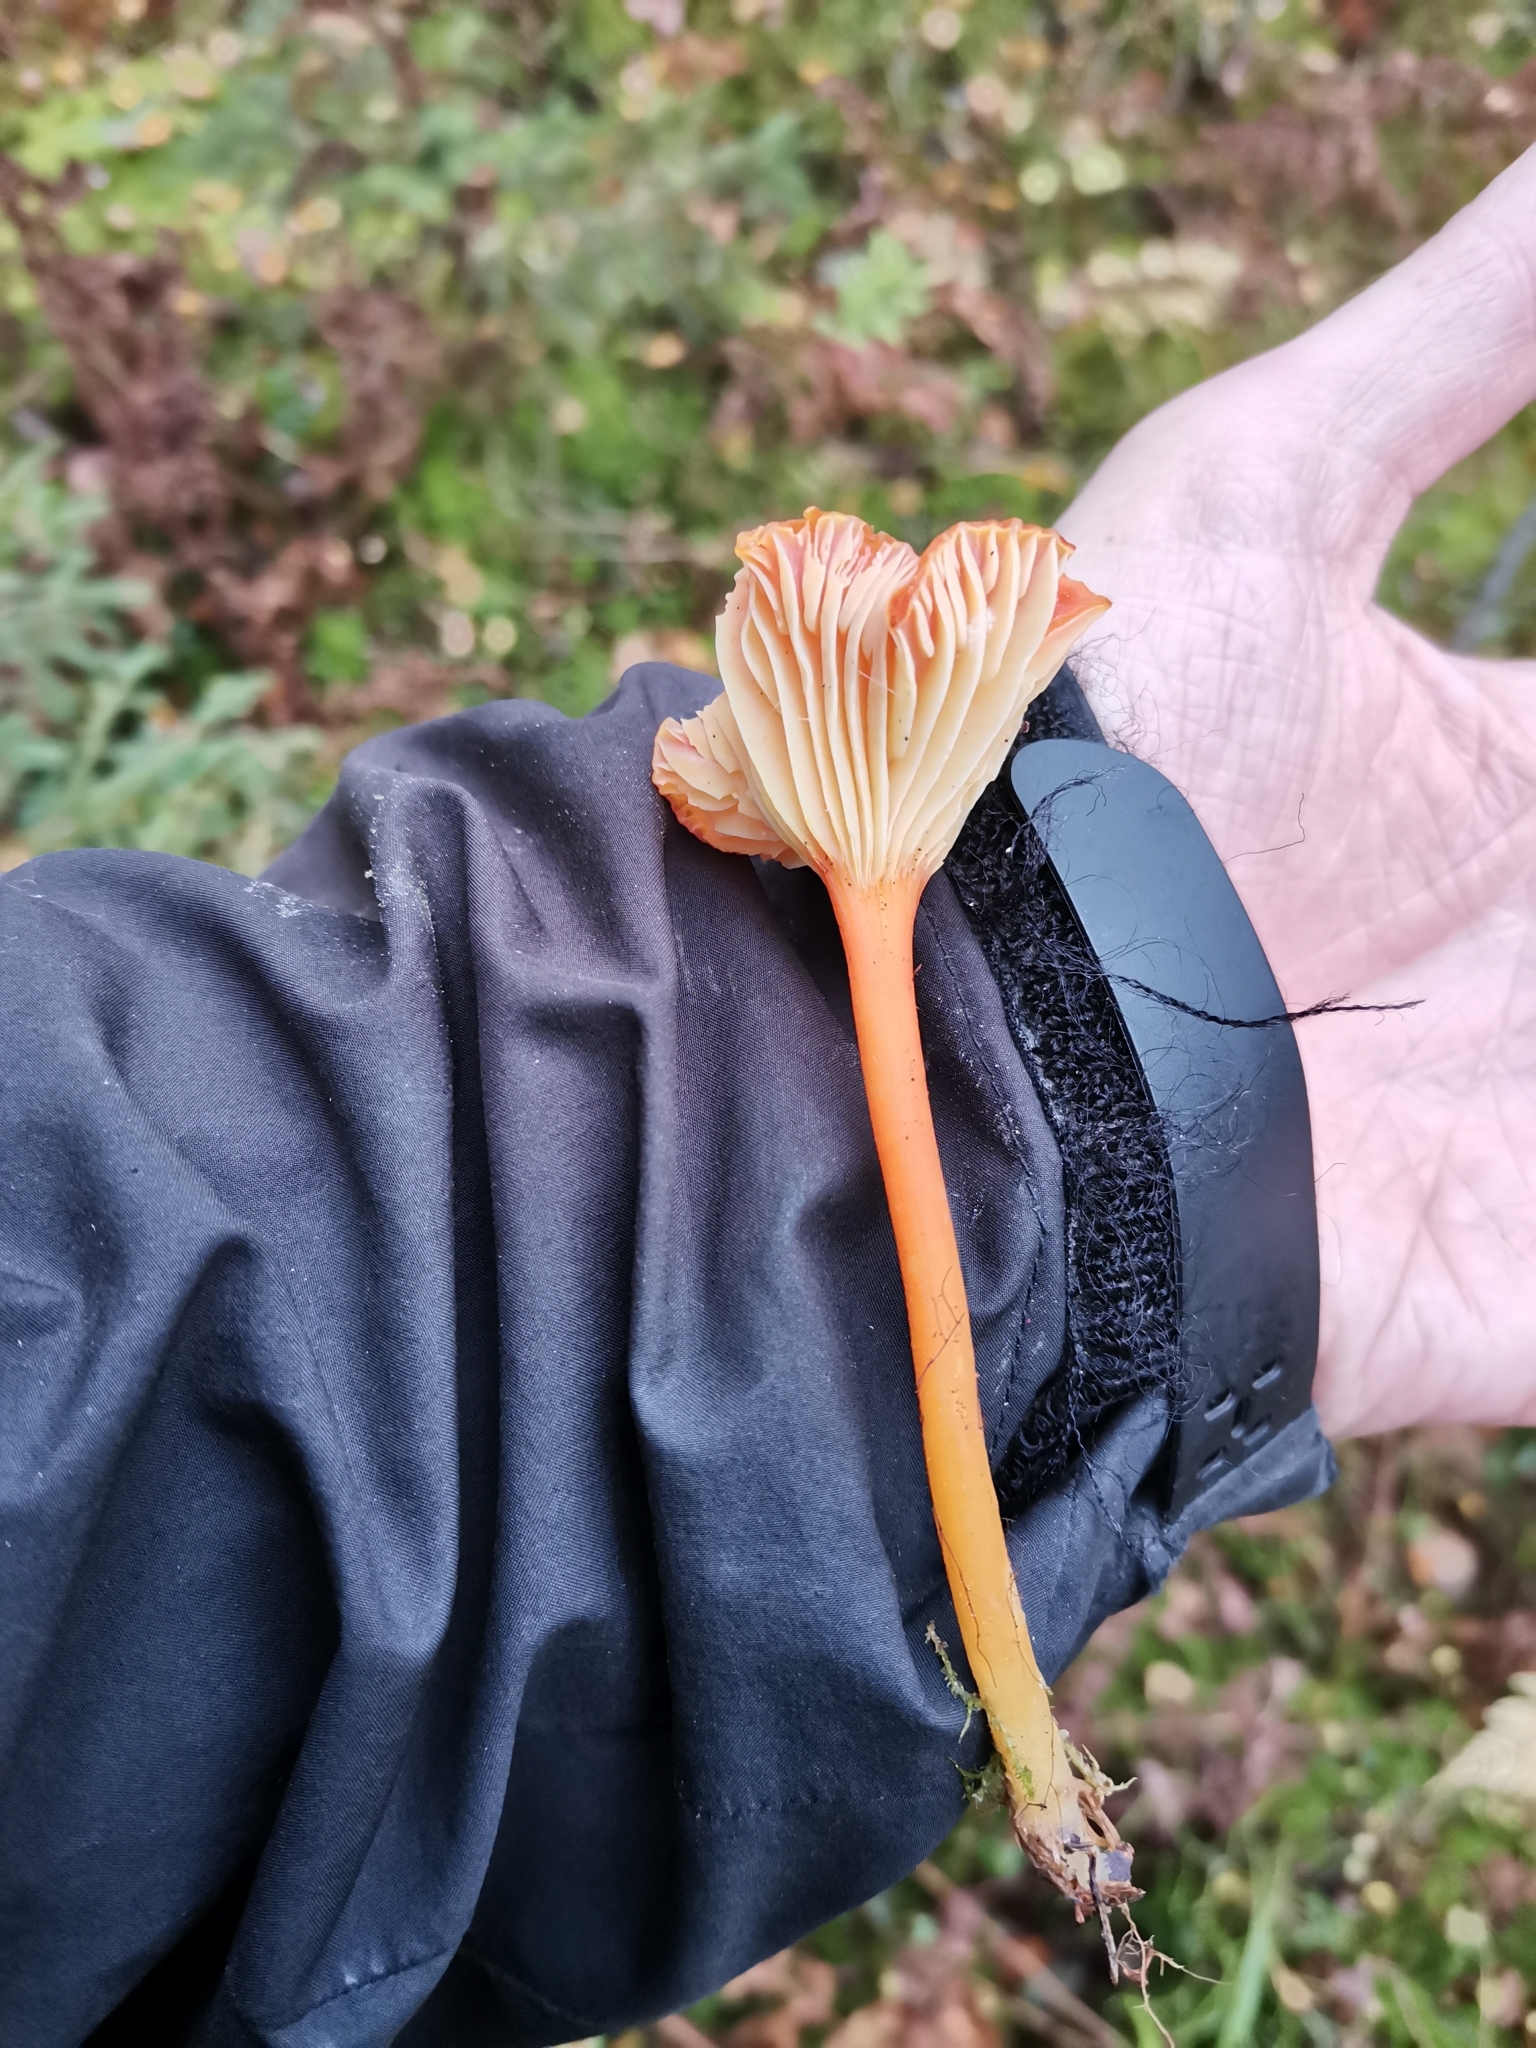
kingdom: Fungi
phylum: Basidiomycota
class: Agaricomycetes
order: Agaricales
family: Hygrophoraceae
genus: Hygrocybe
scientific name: Hygrocybe cantharellus
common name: Goblet waxcap
